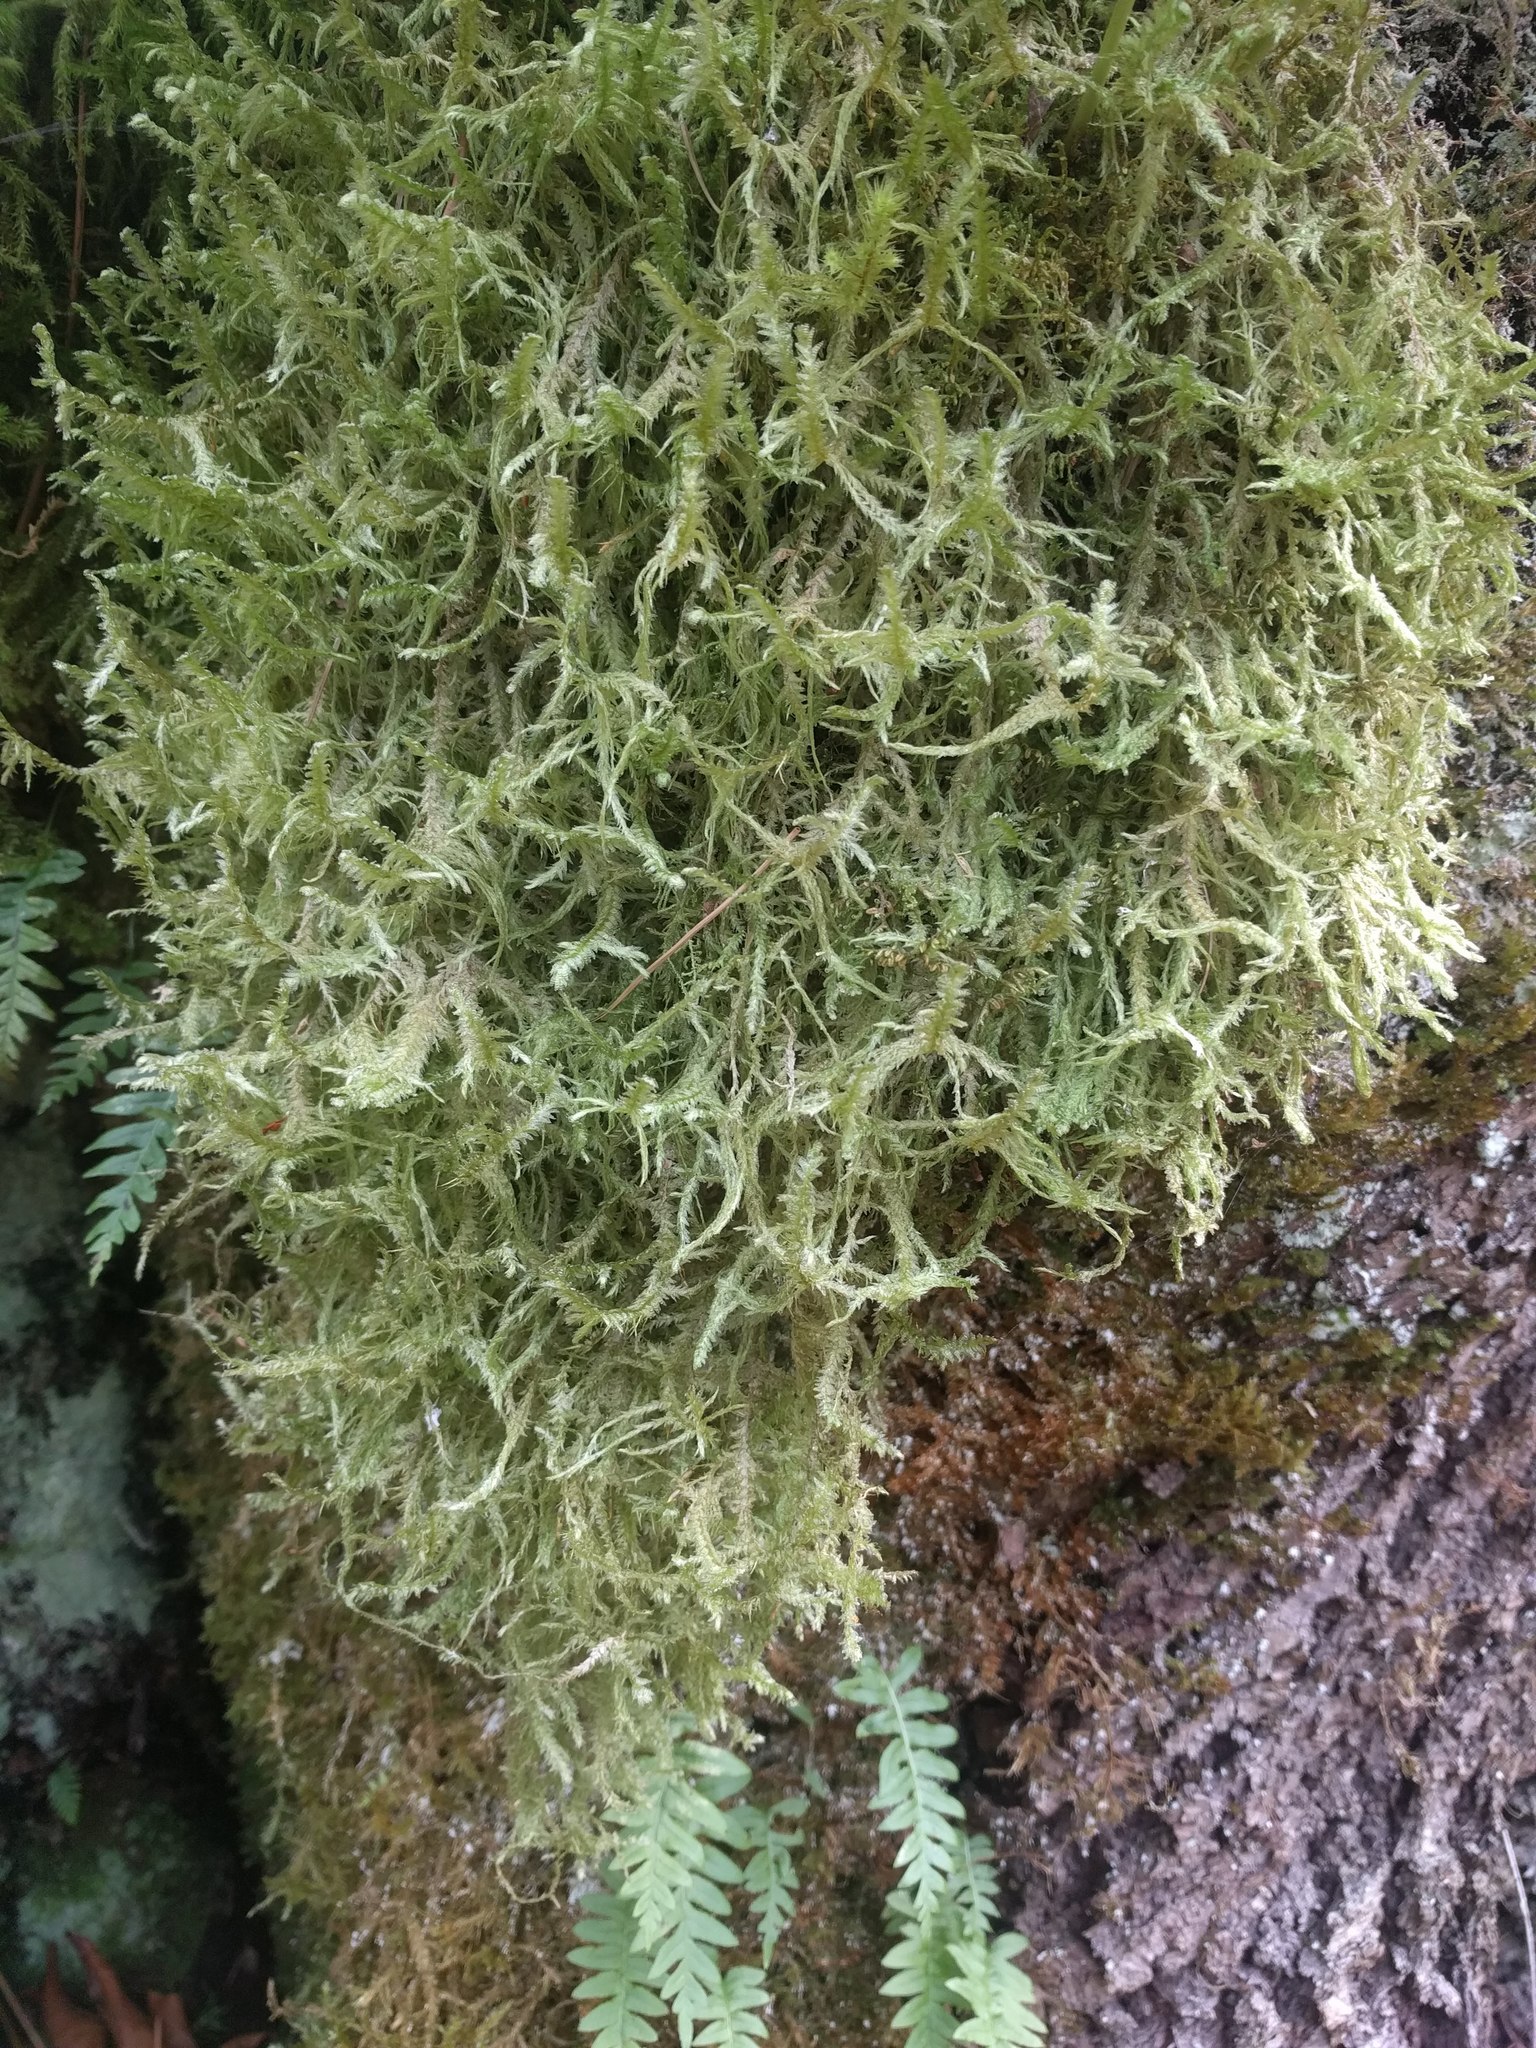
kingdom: Plantae
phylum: Bryophyta
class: Bryopsida
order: Hypnales
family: Neckeraceae
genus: Neckera
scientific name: Neckera douglasii
